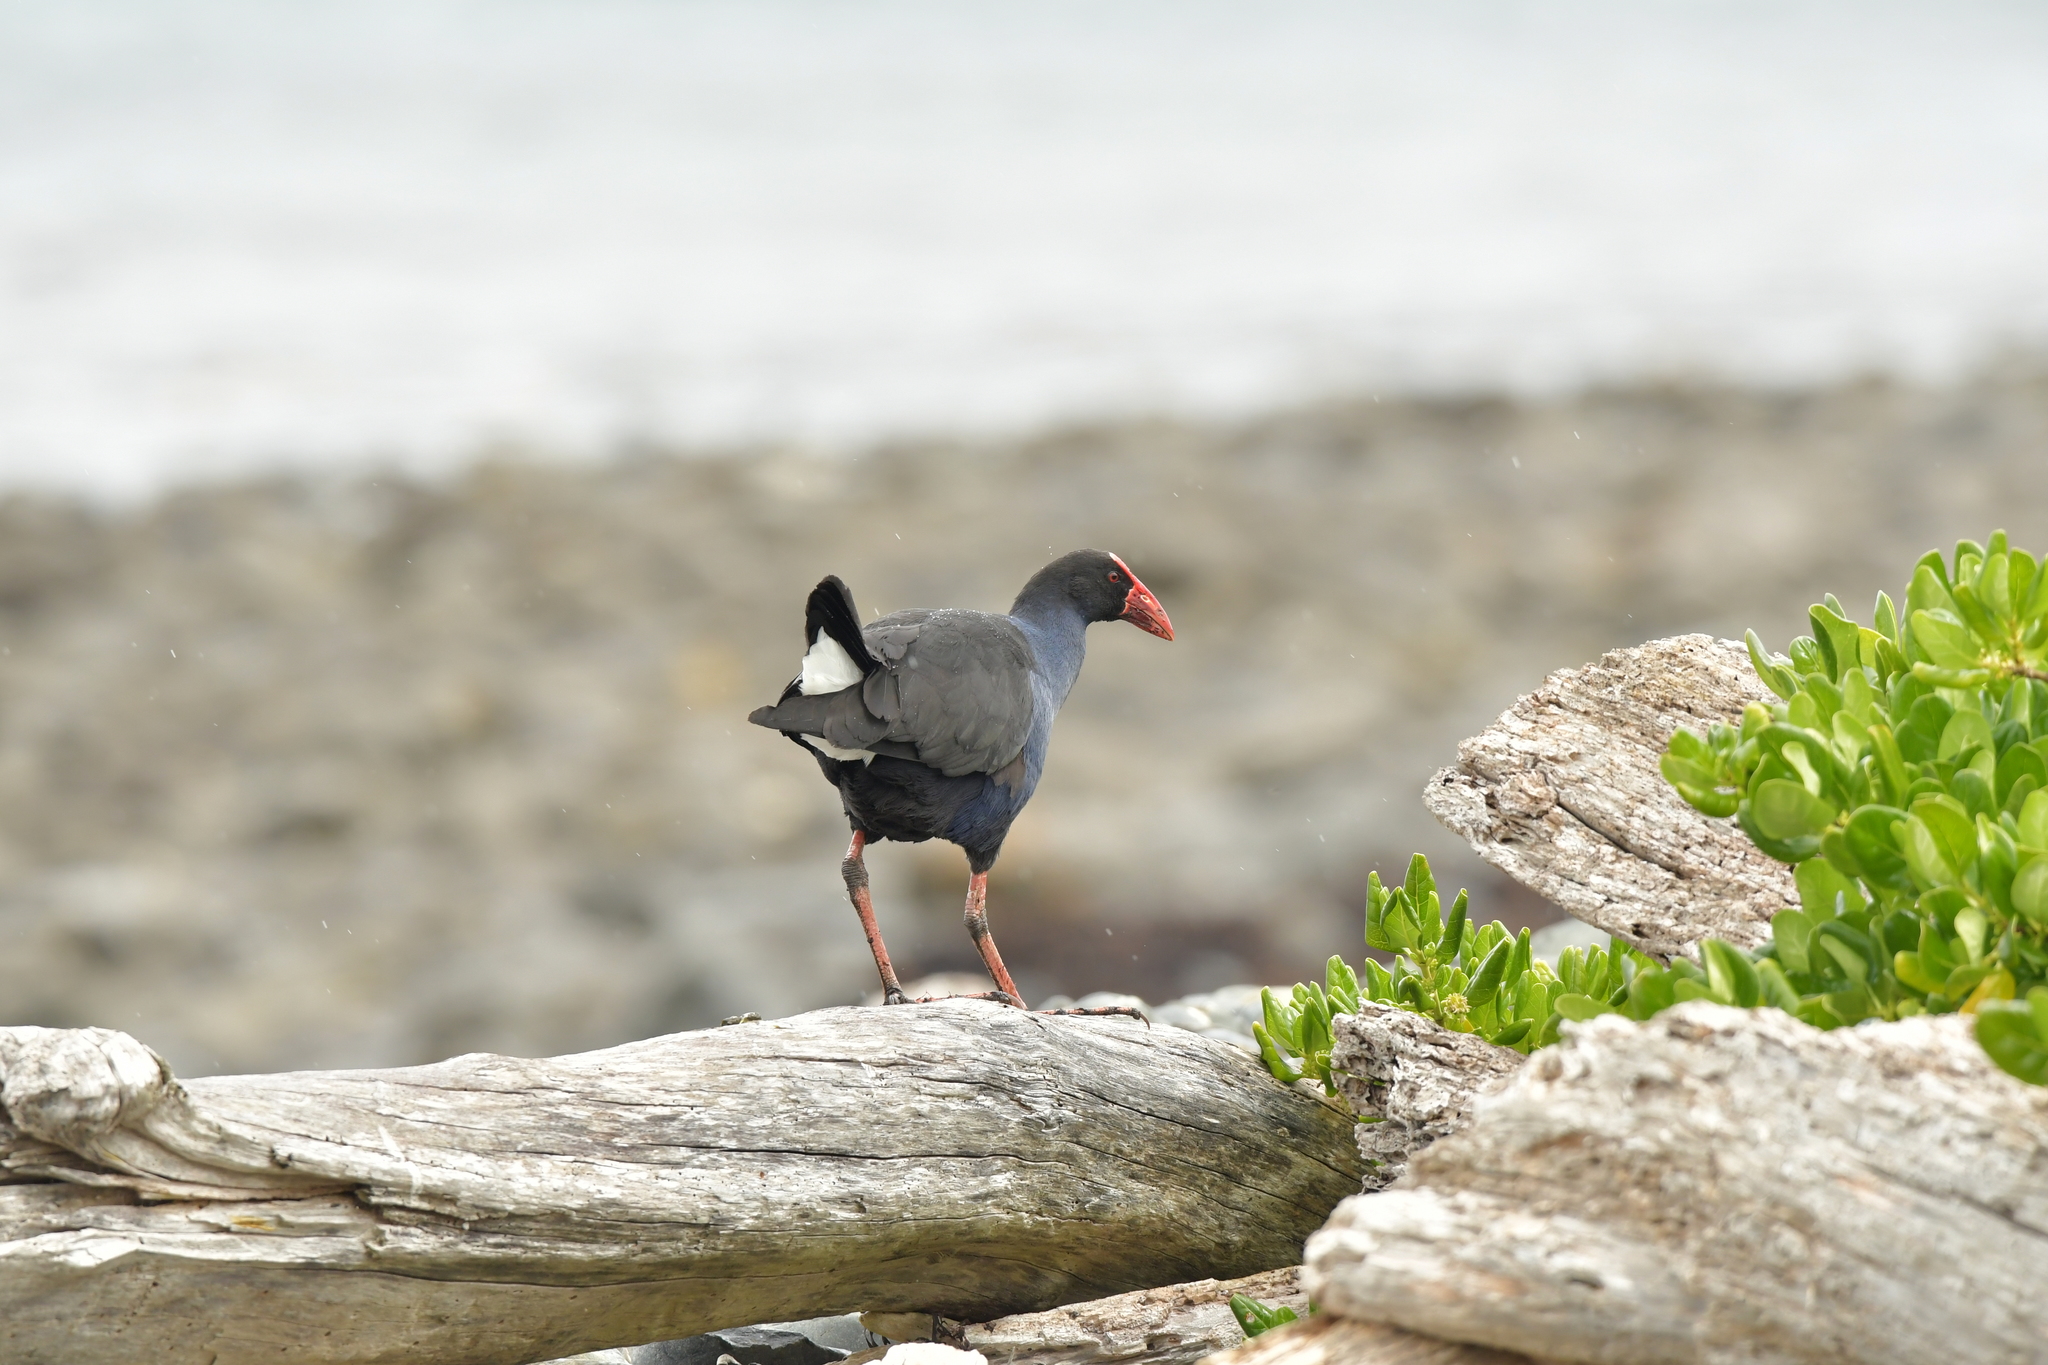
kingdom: Animalia
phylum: Chordata
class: Aves
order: Gruiformes
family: Rallidae
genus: Porphyrio
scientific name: Porphyrio melanotus
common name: Australasian swamphen
